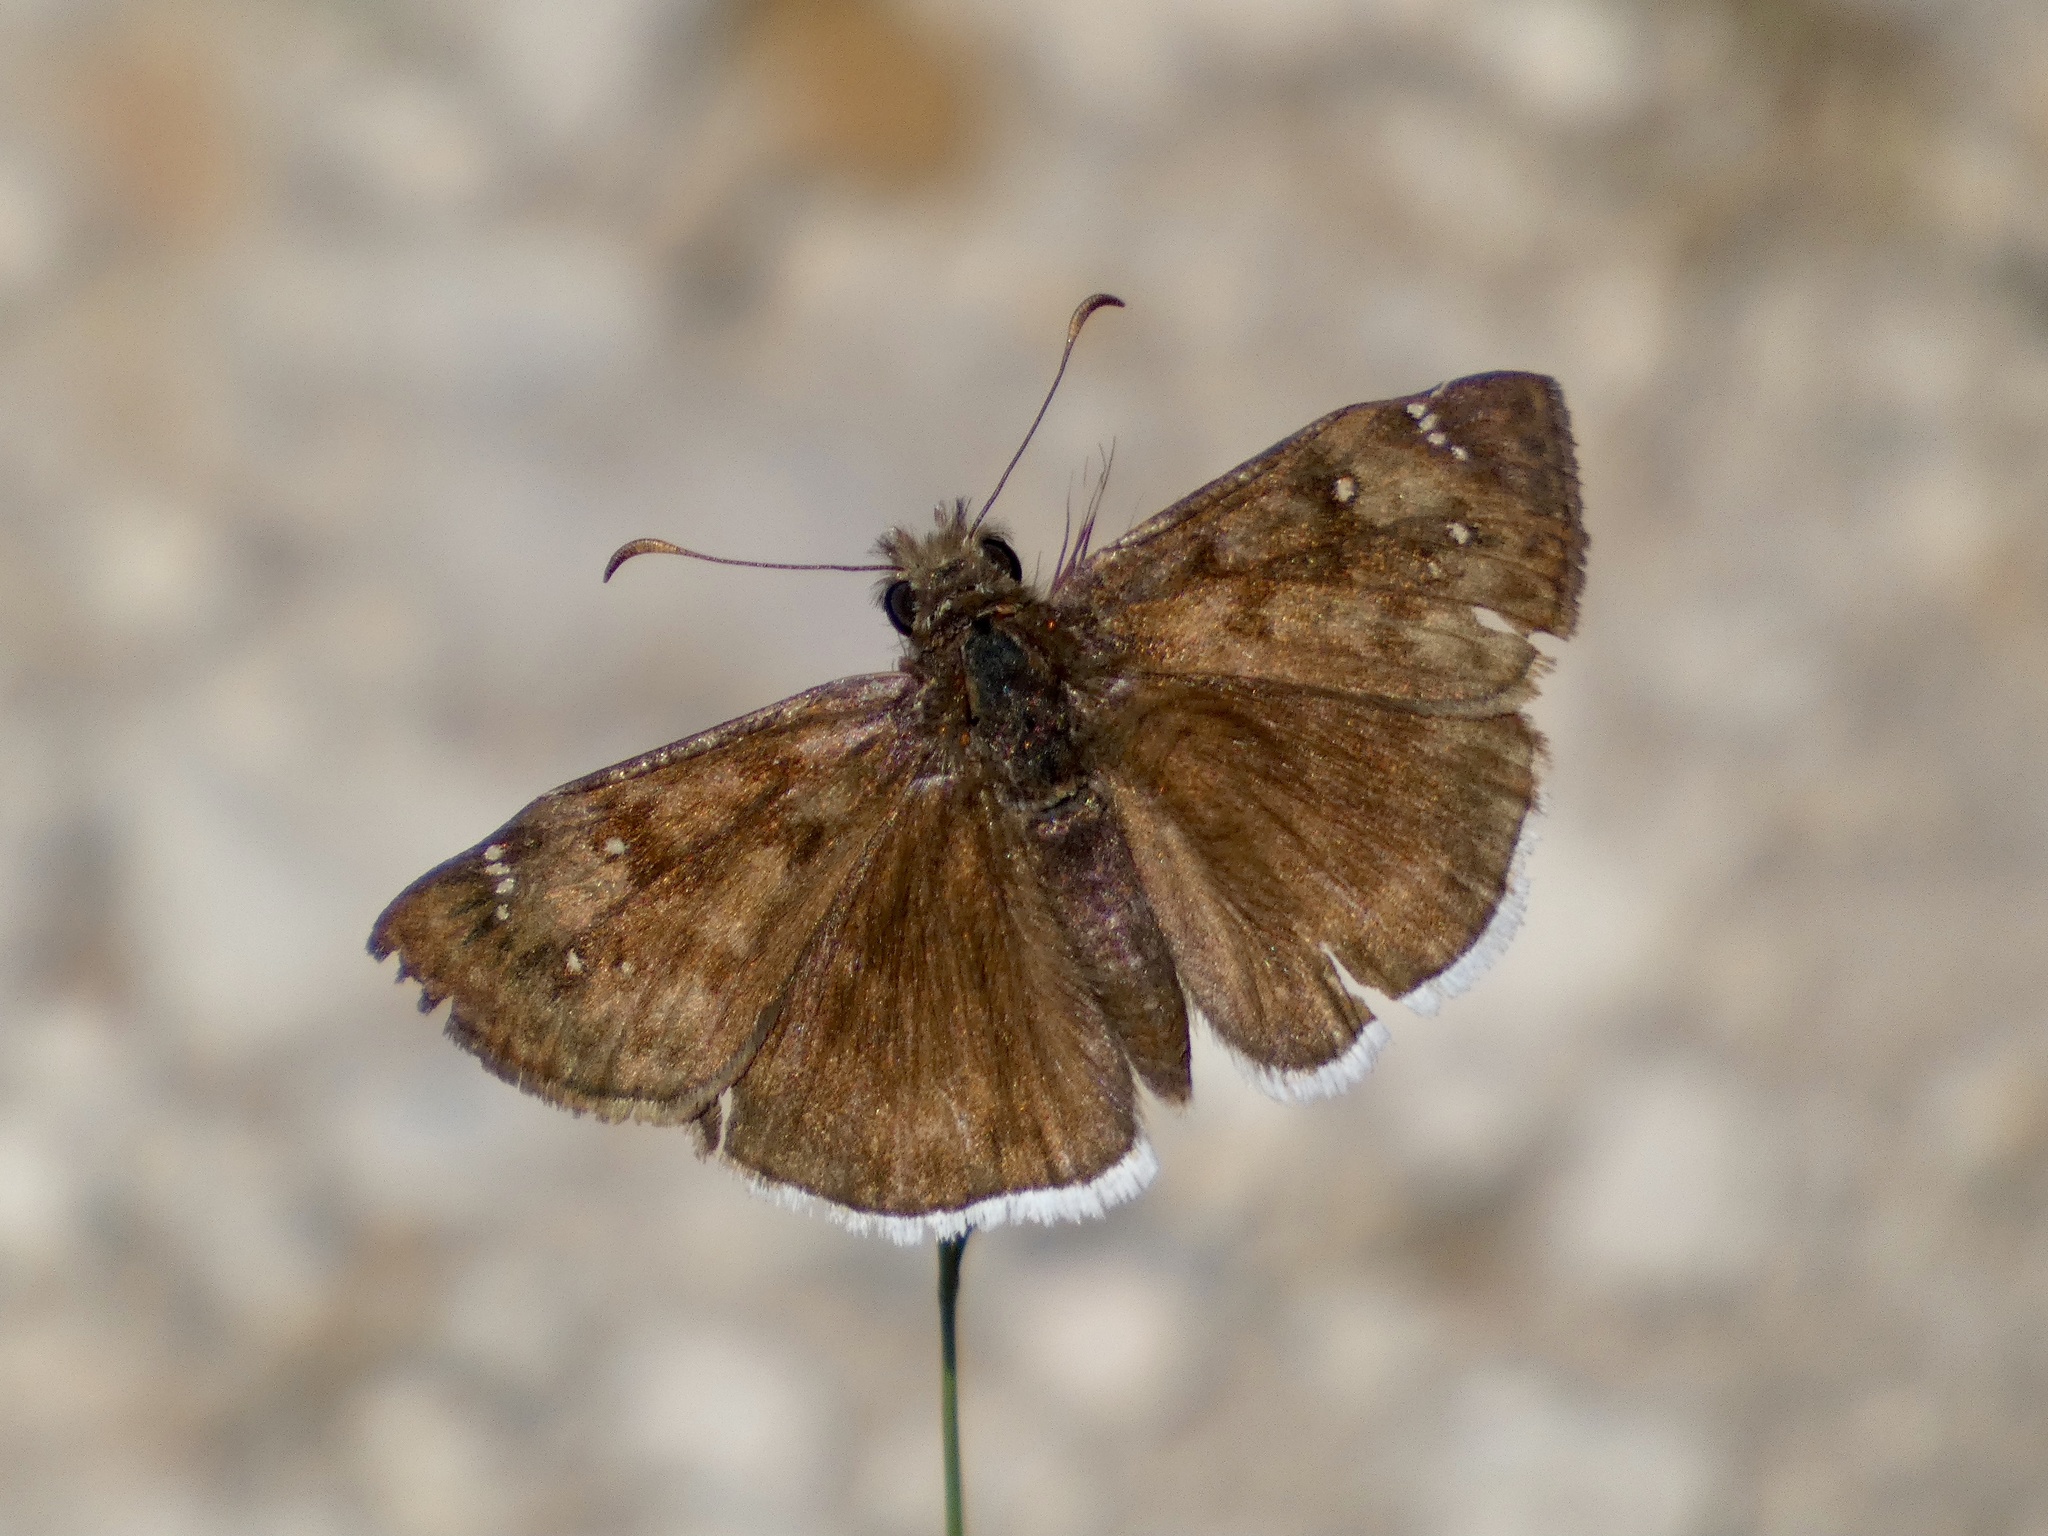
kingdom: Animalia
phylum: Arthropoda
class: Insecta
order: Lepidoptera
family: Hesperiidae
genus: Erynnis
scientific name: Erynnis tristis
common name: Mournful duskywing
